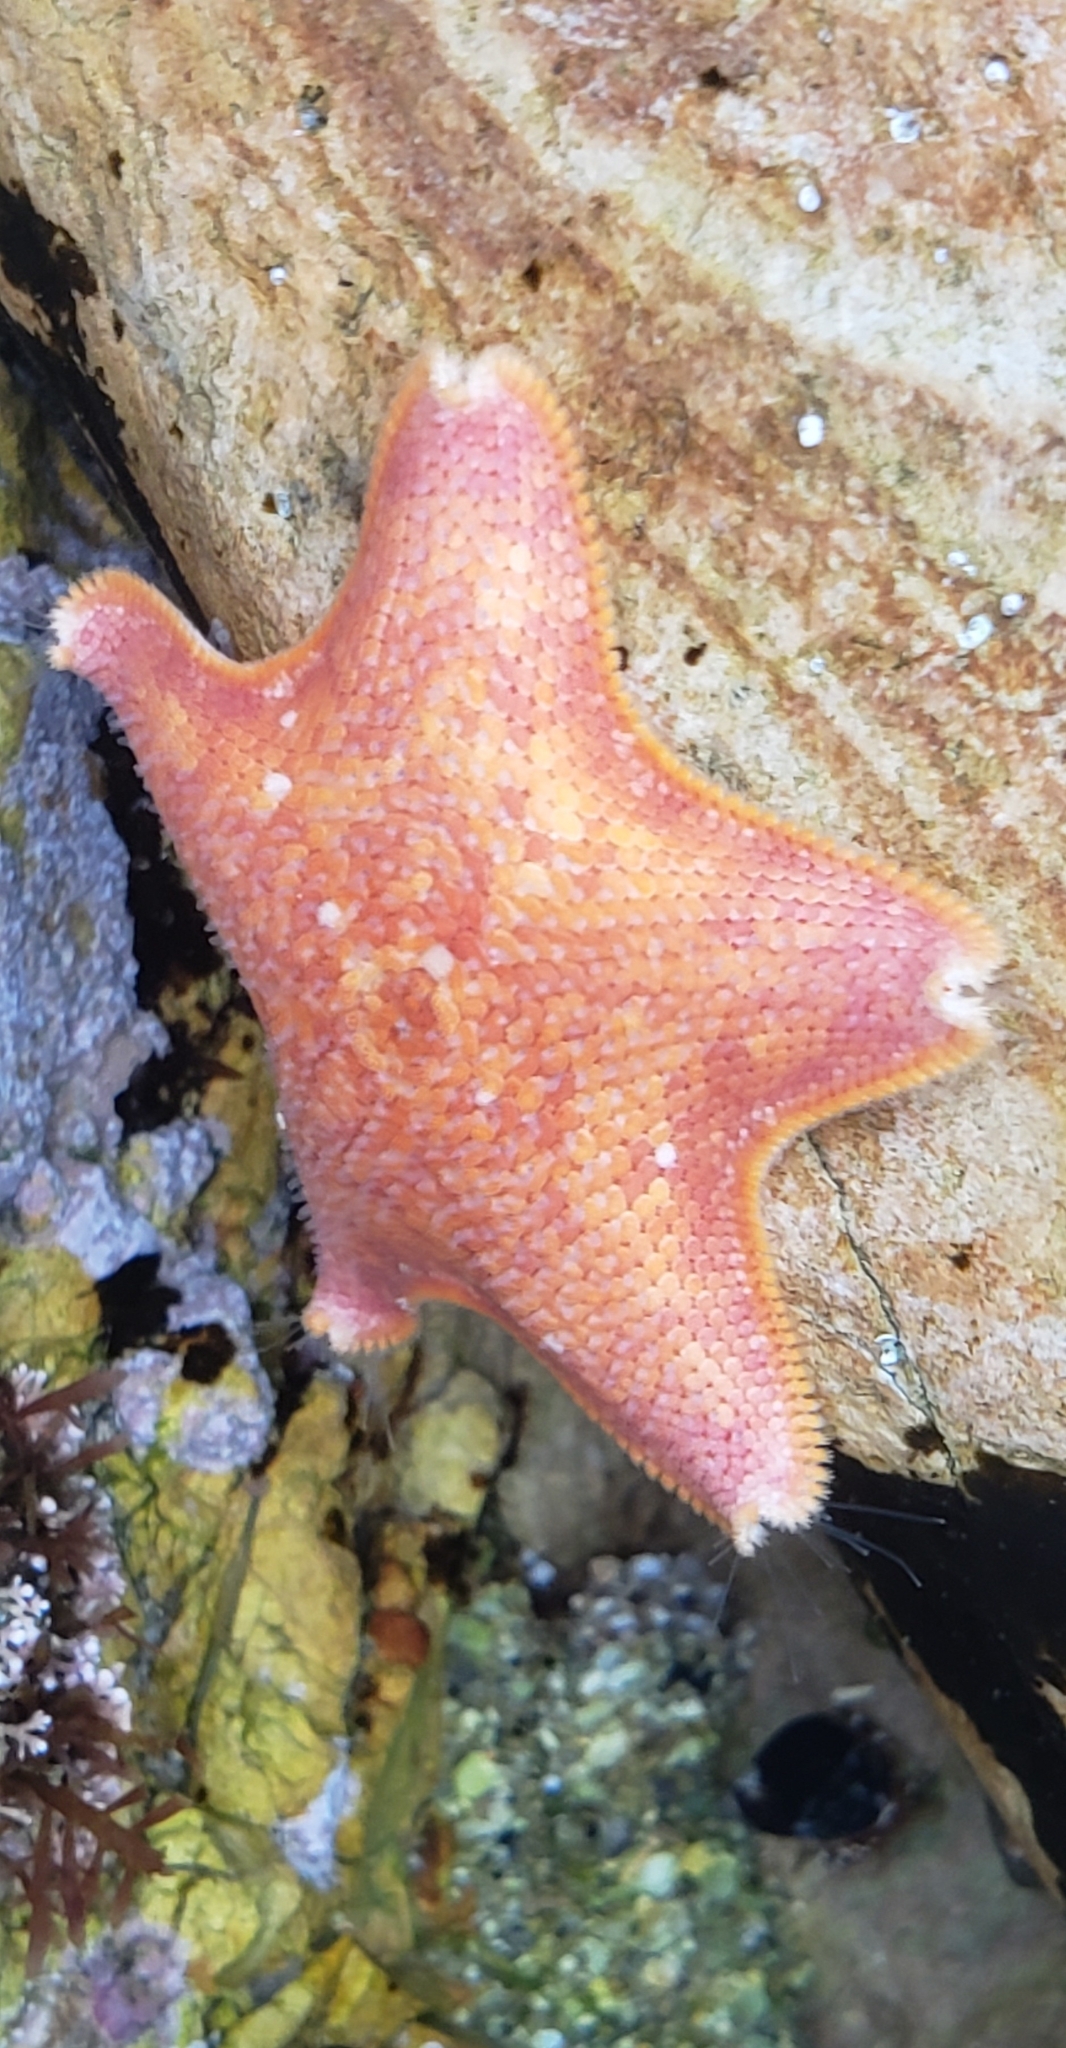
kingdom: Animalia
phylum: Echinodermata
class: Asteroidea
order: Valvatida
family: Asterinidae
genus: Patiria
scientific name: Patiria miniata
